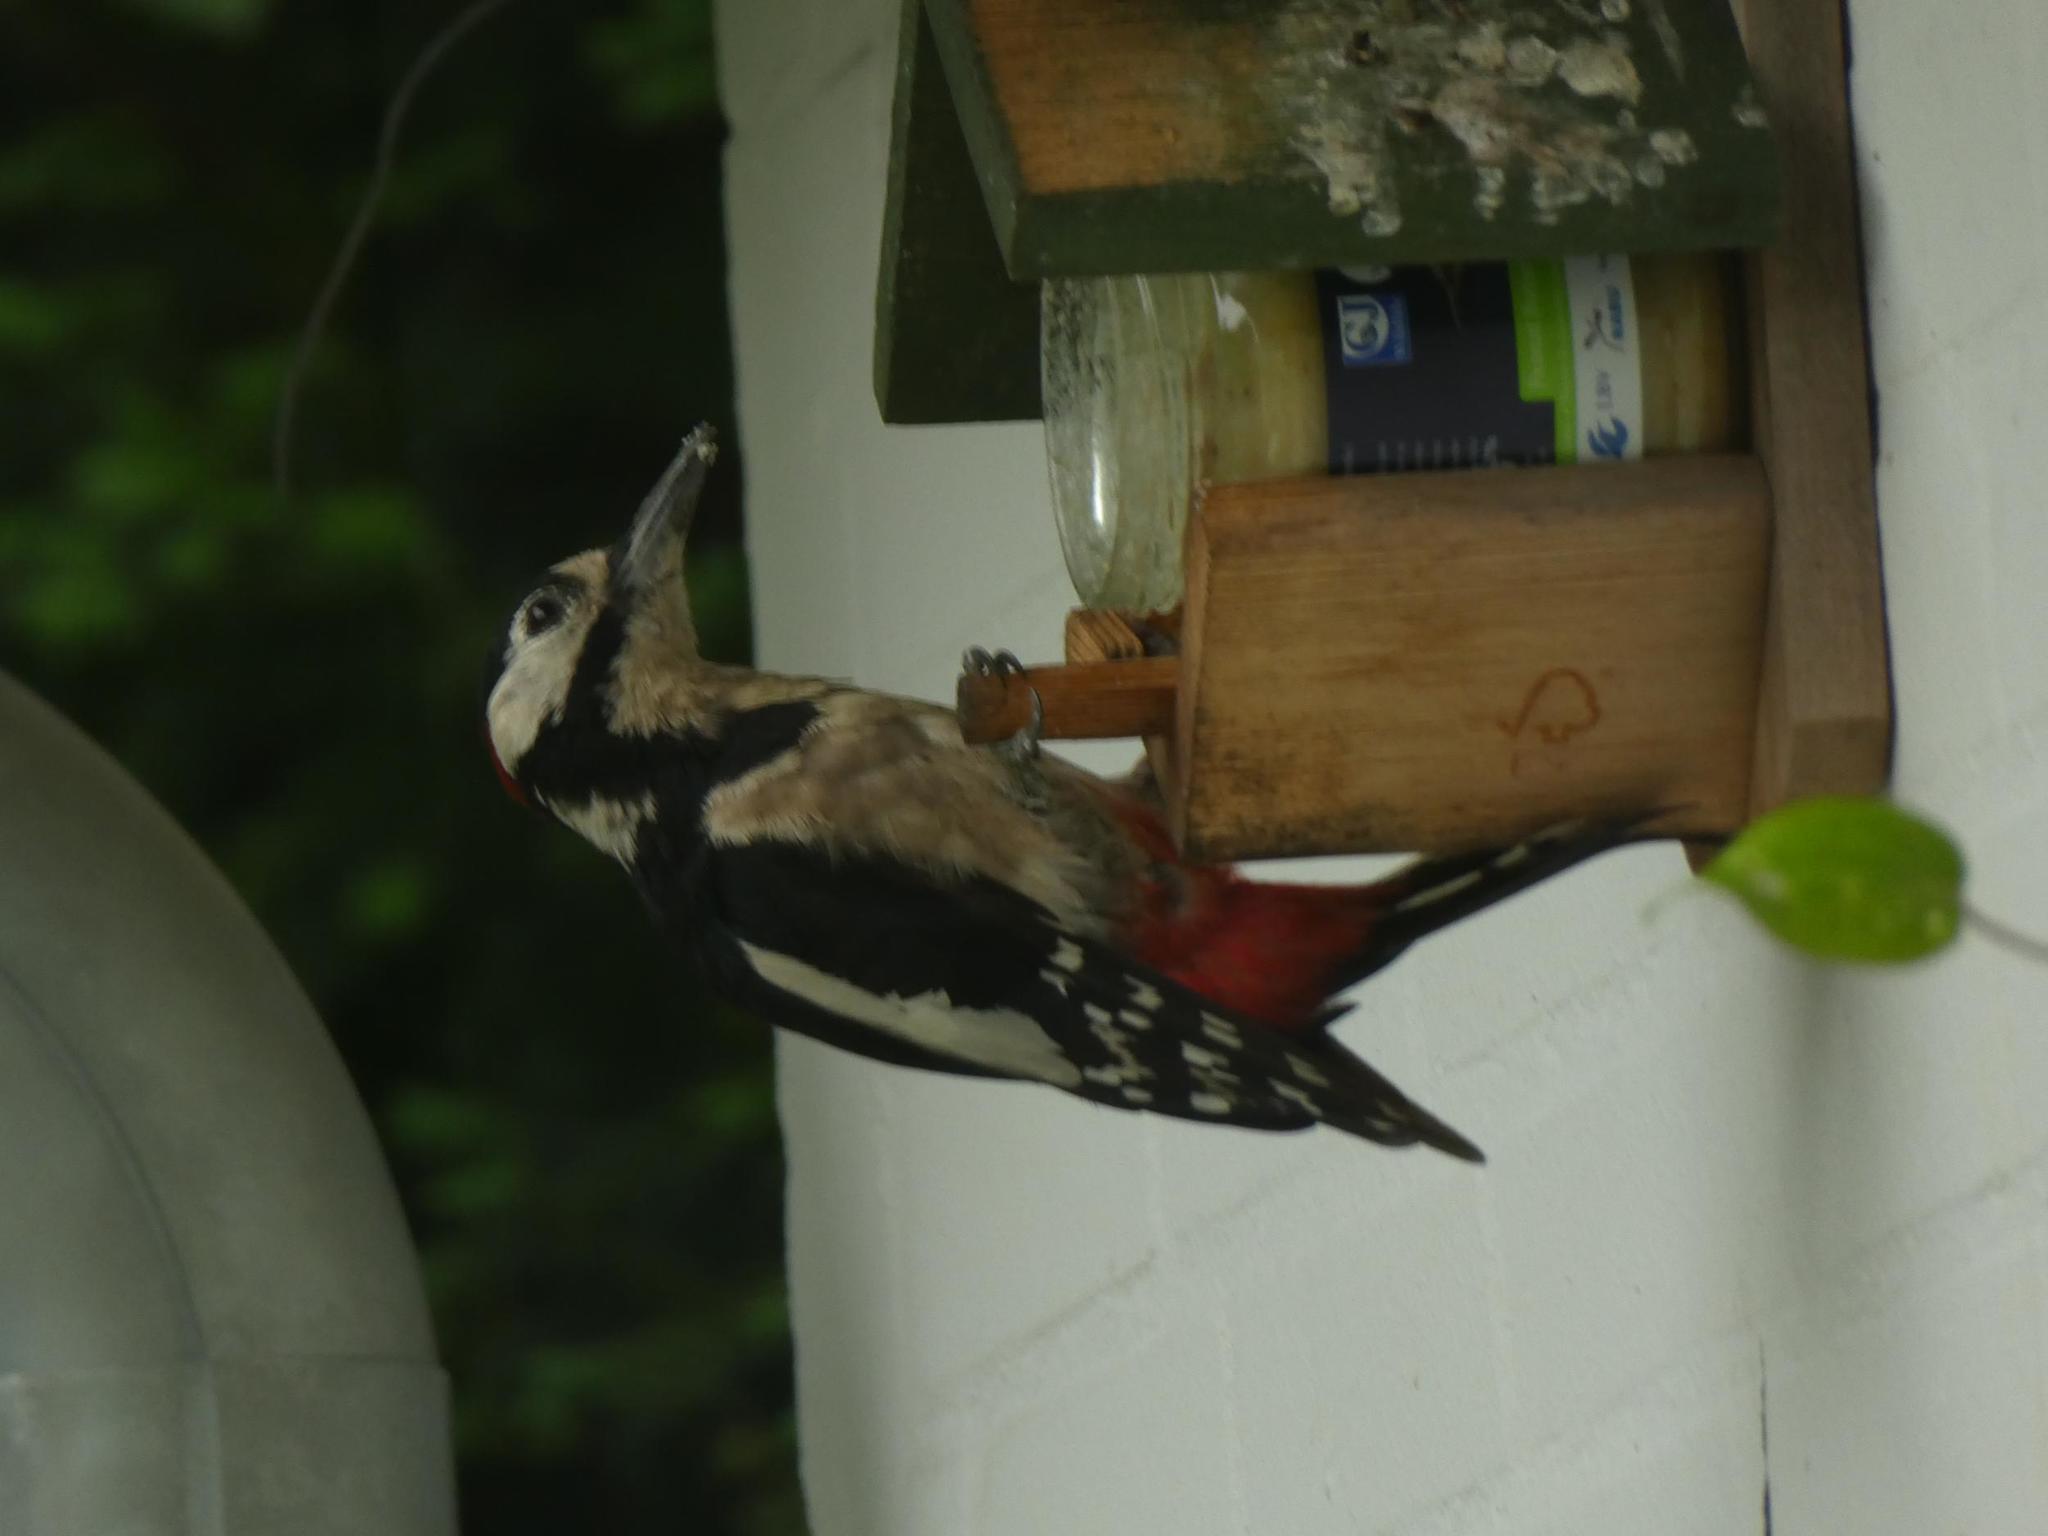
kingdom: Animalia
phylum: Chordata
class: Aves
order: Piciformes
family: Picidae
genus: Dendrocopos
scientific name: Dendrocopos major
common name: Great spotted woodpecker
